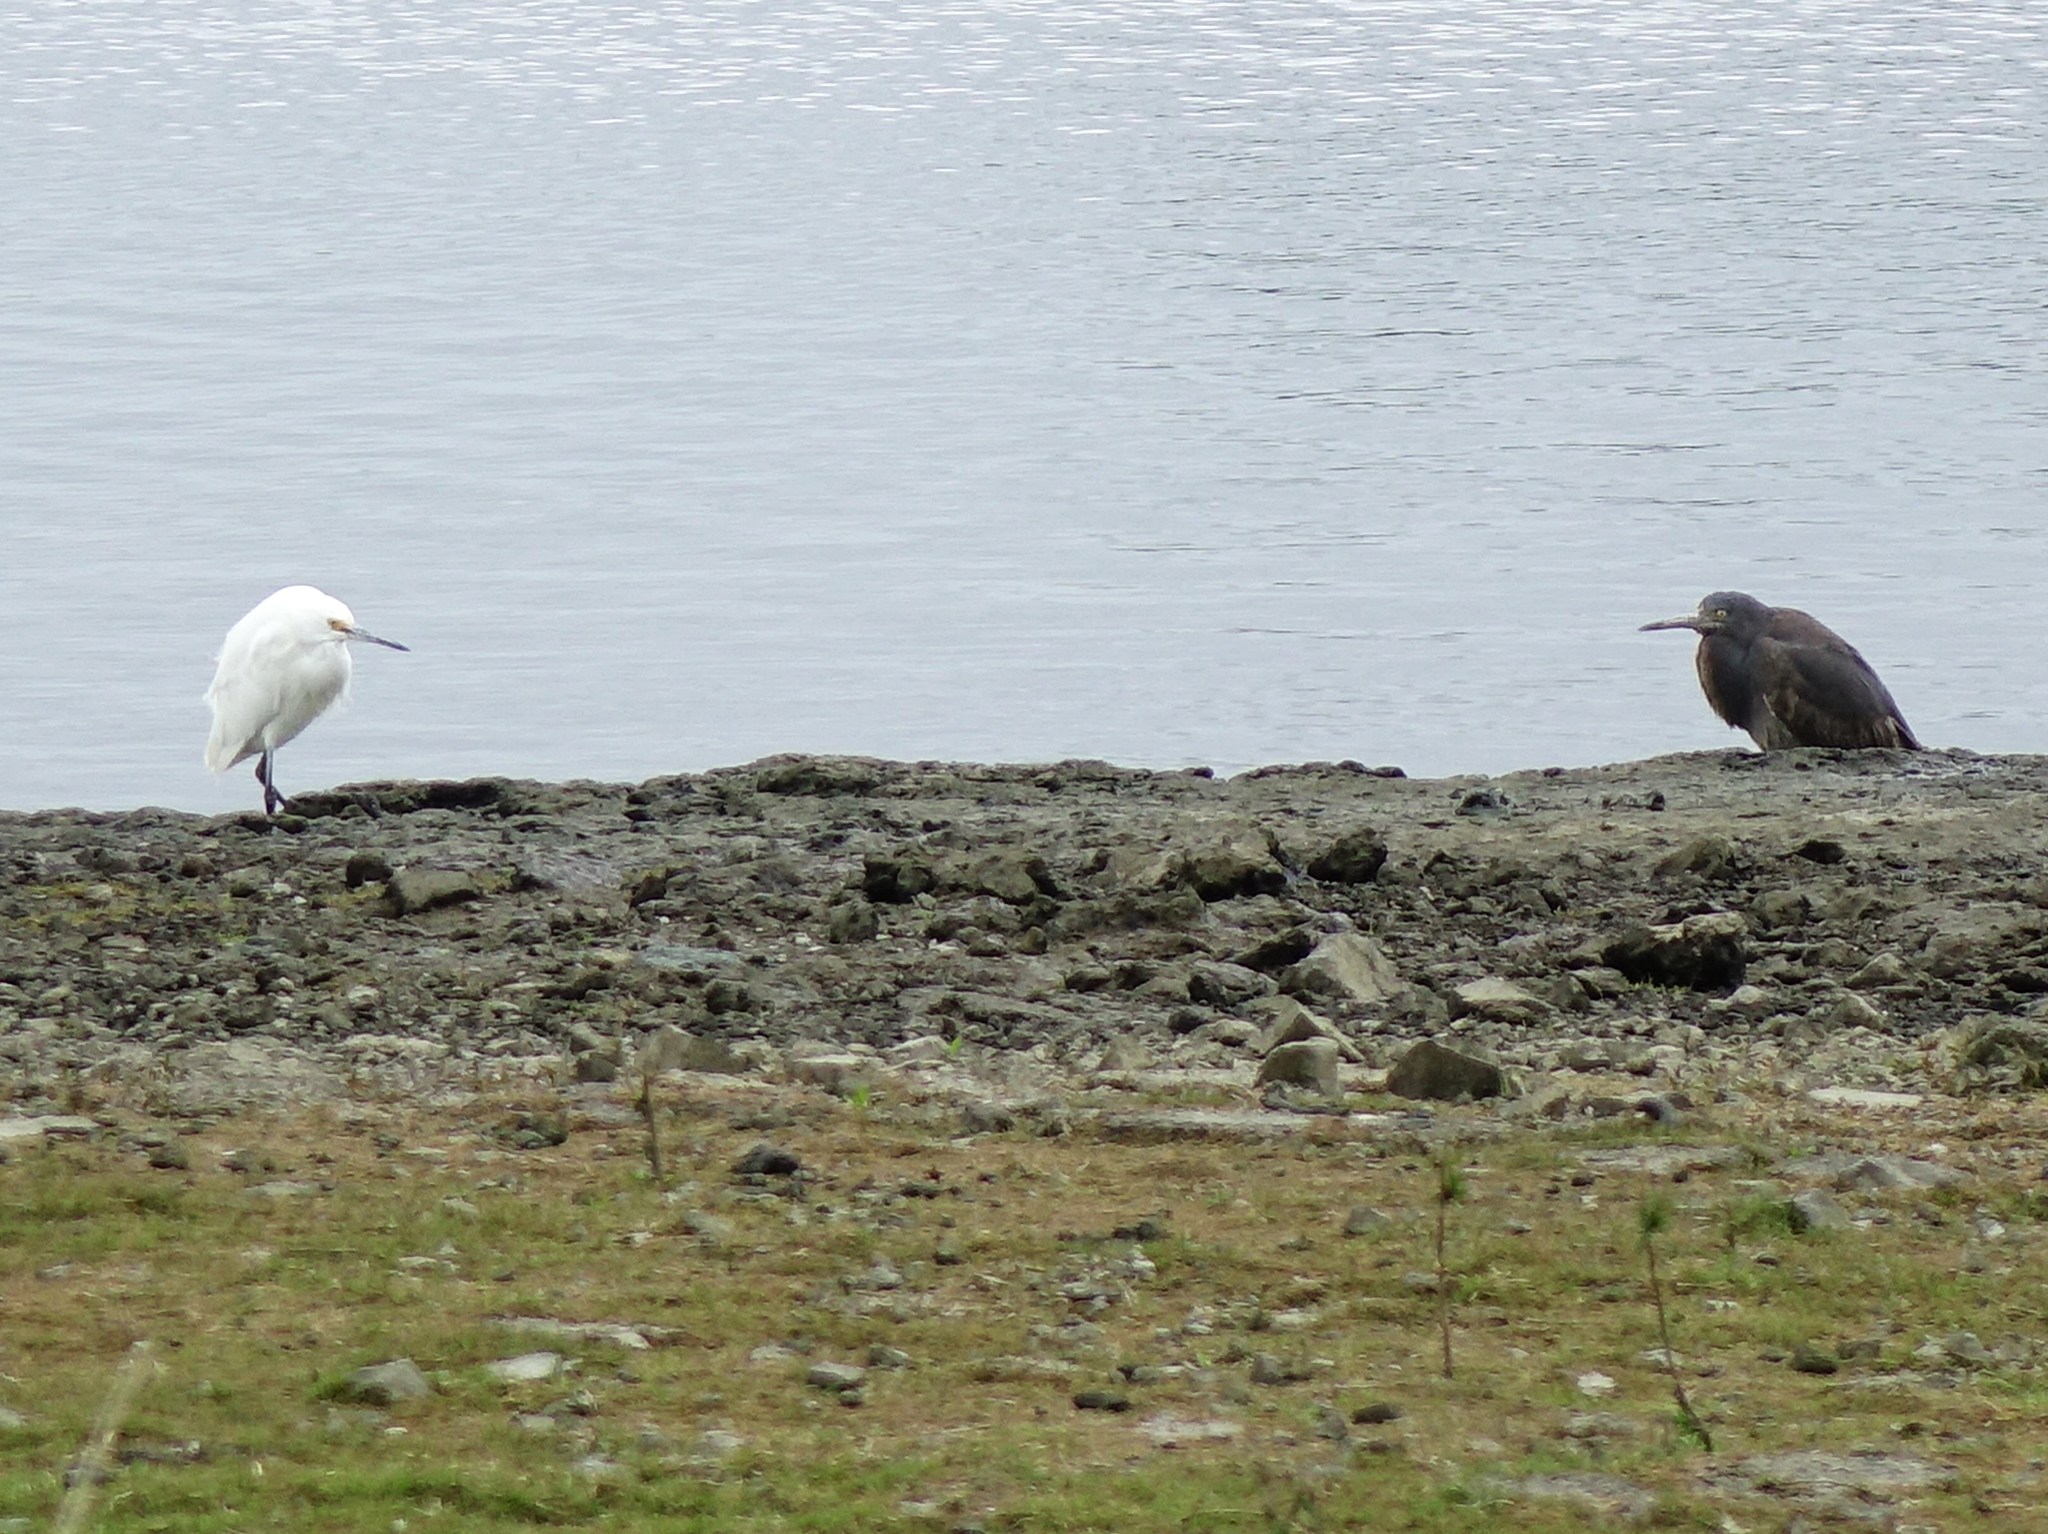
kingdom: Animalia
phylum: Chordata
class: Aves
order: Pelecaniformes
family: Ardeidae
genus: Egretta
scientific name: Egretta sacra
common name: Pacific reef heron
